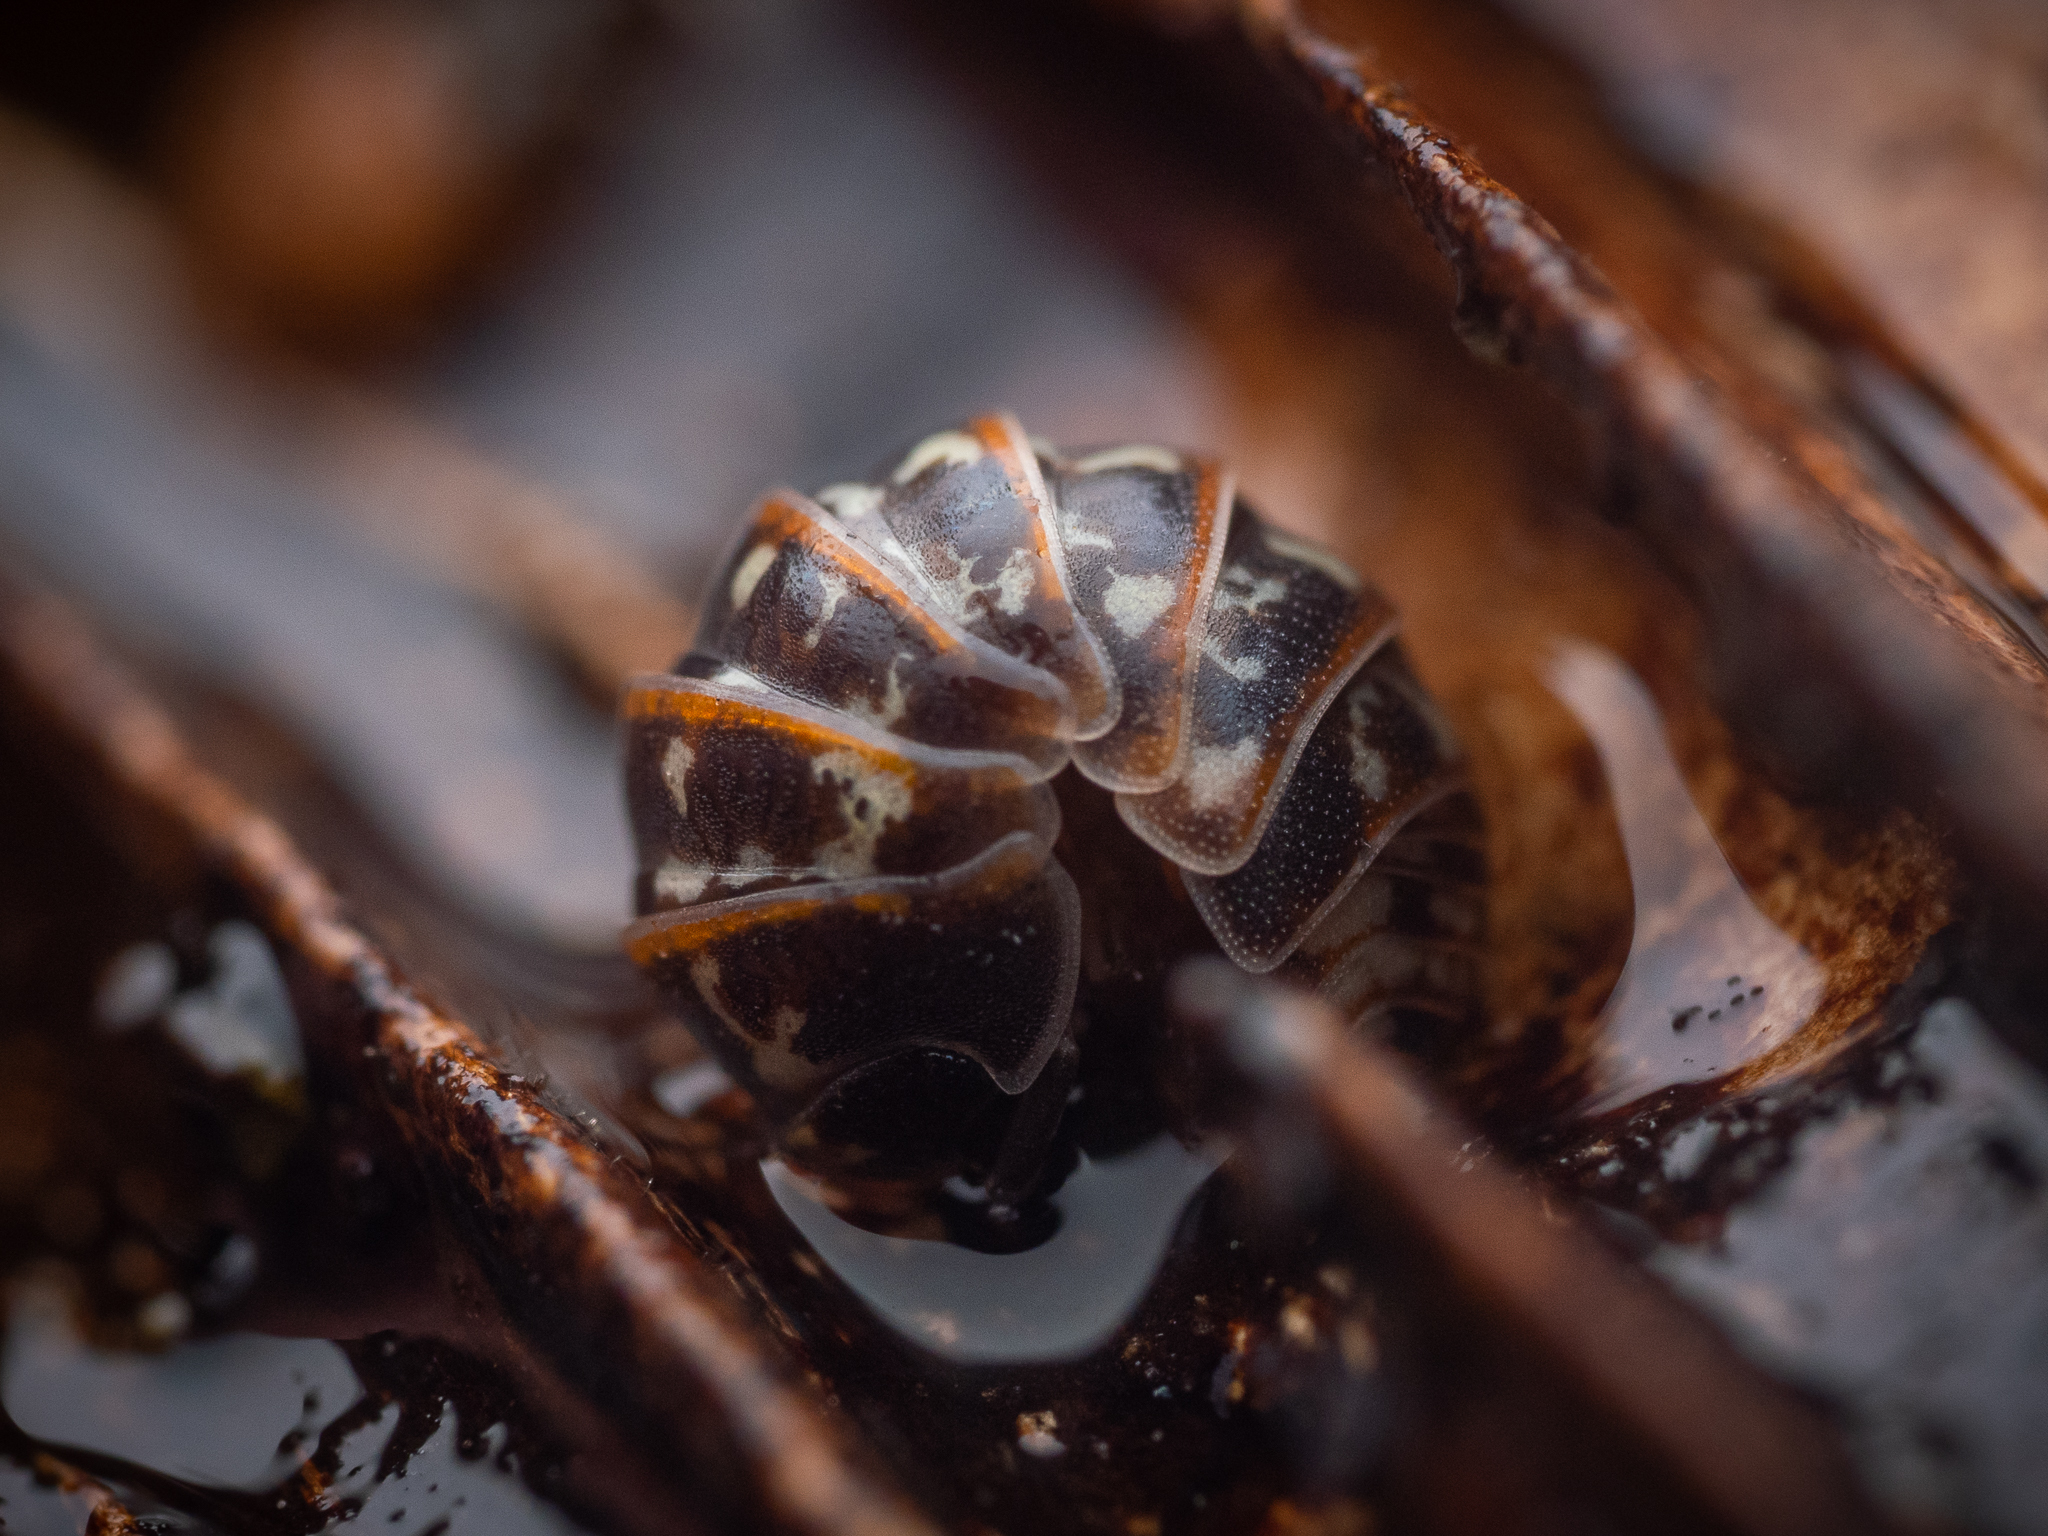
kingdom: Animalia
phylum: Arthropoda
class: Malacostraca
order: Isopoda
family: Armadillidiidae
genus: Armadillidium
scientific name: Armadillidium pulchellum
